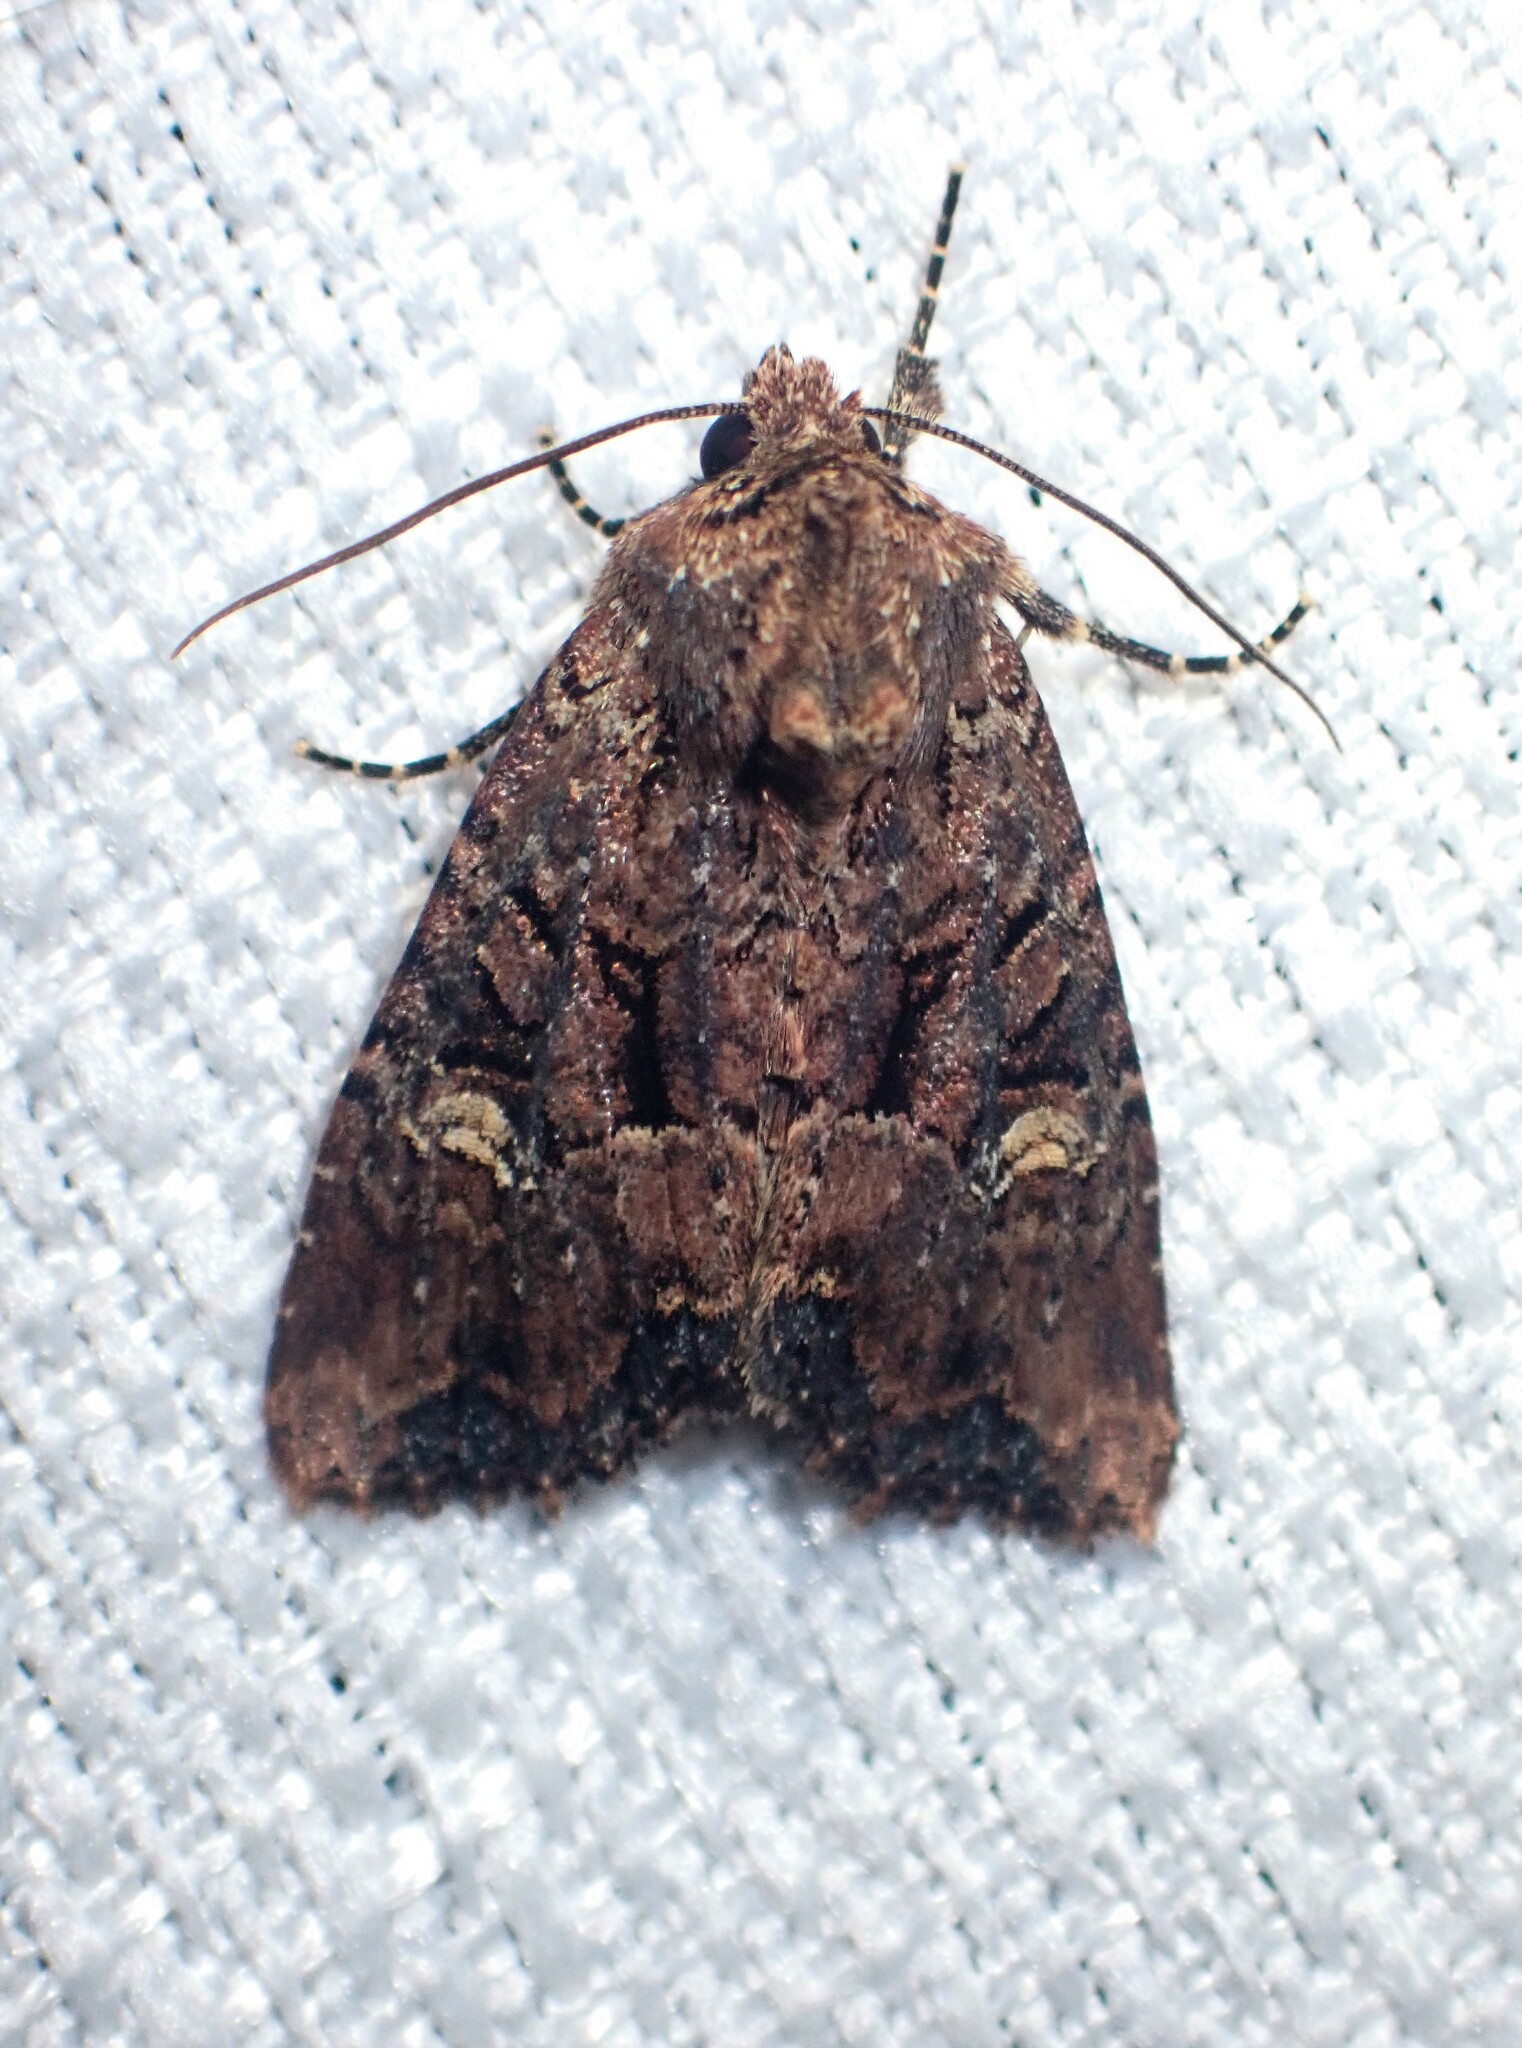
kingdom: Animalia
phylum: Arthropoda
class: Insecta
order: Lepidoptera
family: Noctuidae
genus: Mesapamea
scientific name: Mesapamea storai
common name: Owlet moth
